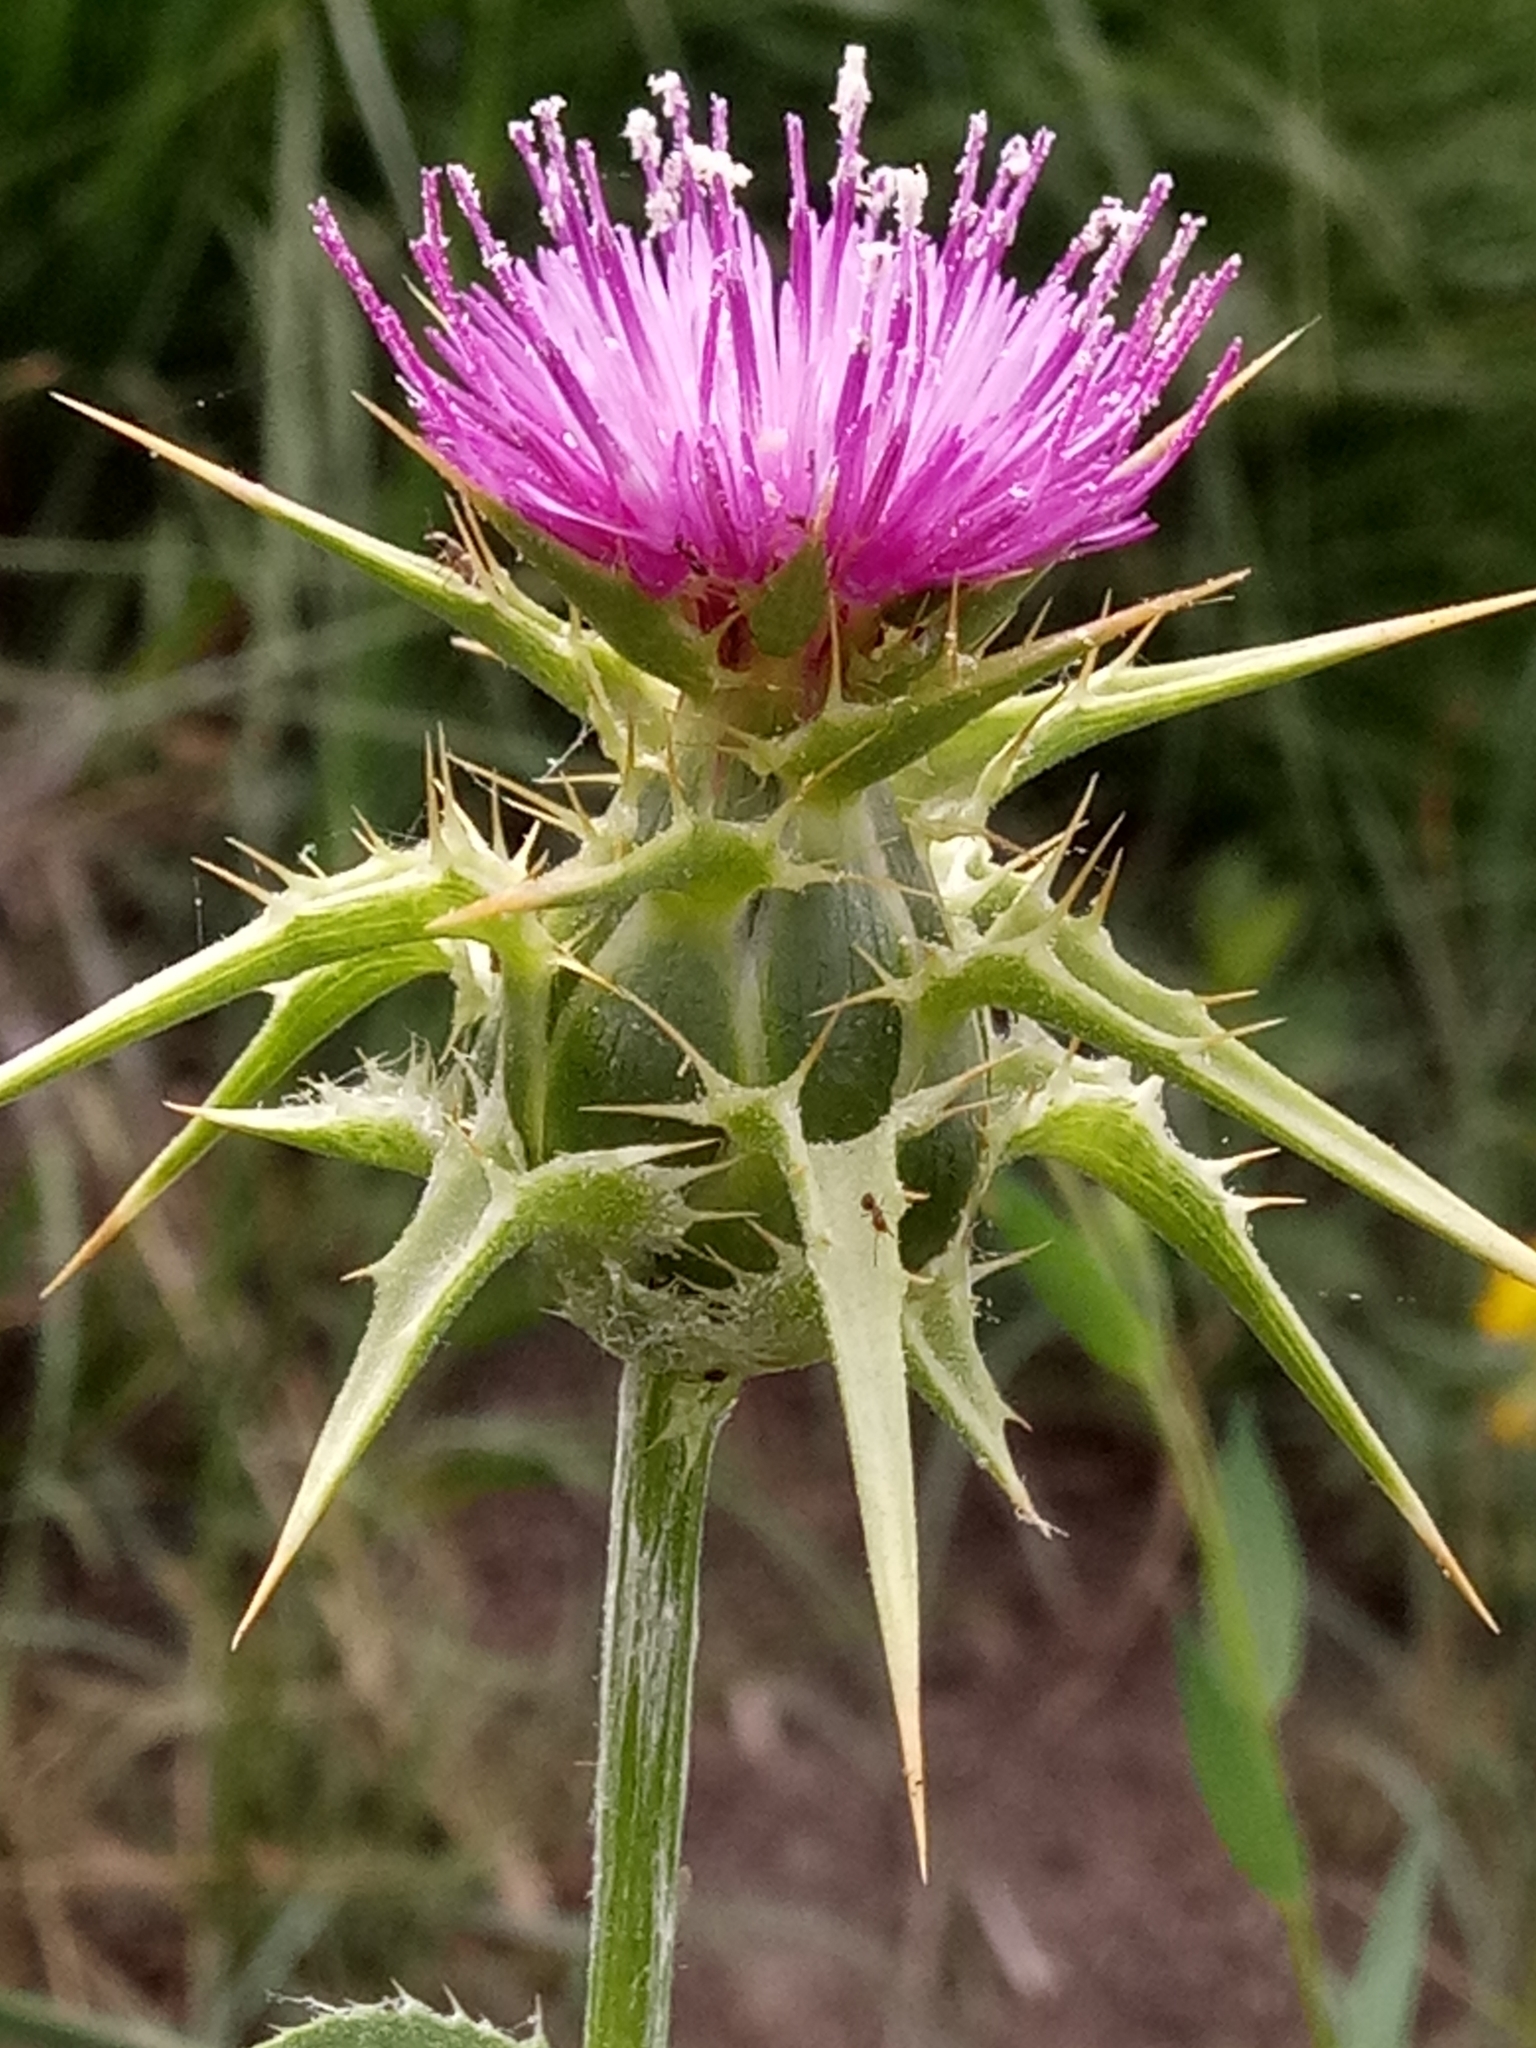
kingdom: Plantae
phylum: Tracheophyta
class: Magnoliopsida
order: Asterales
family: Asteraceae
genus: Silybum
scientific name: Silybum marianum
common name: Milk thistle
